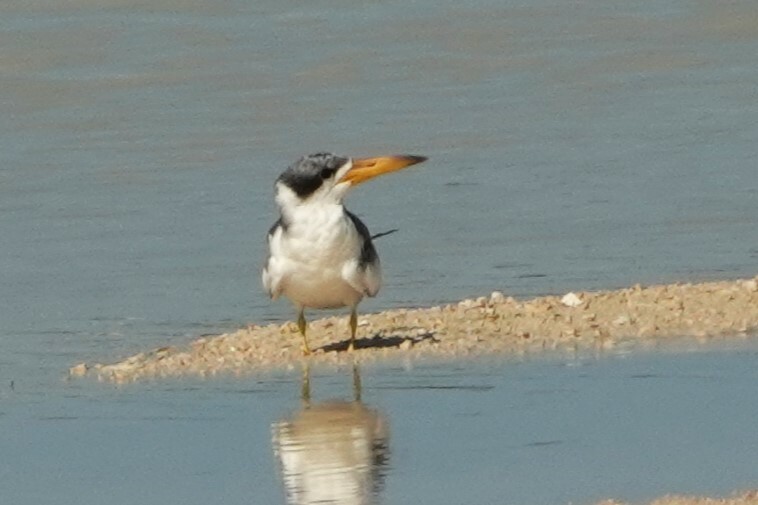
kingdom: Animalia
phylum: Chordata
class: Aves
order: Charadriiformes
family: Laridae
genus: Phaetusa
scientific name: Phaetusa simplex
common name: Large-billed tern
